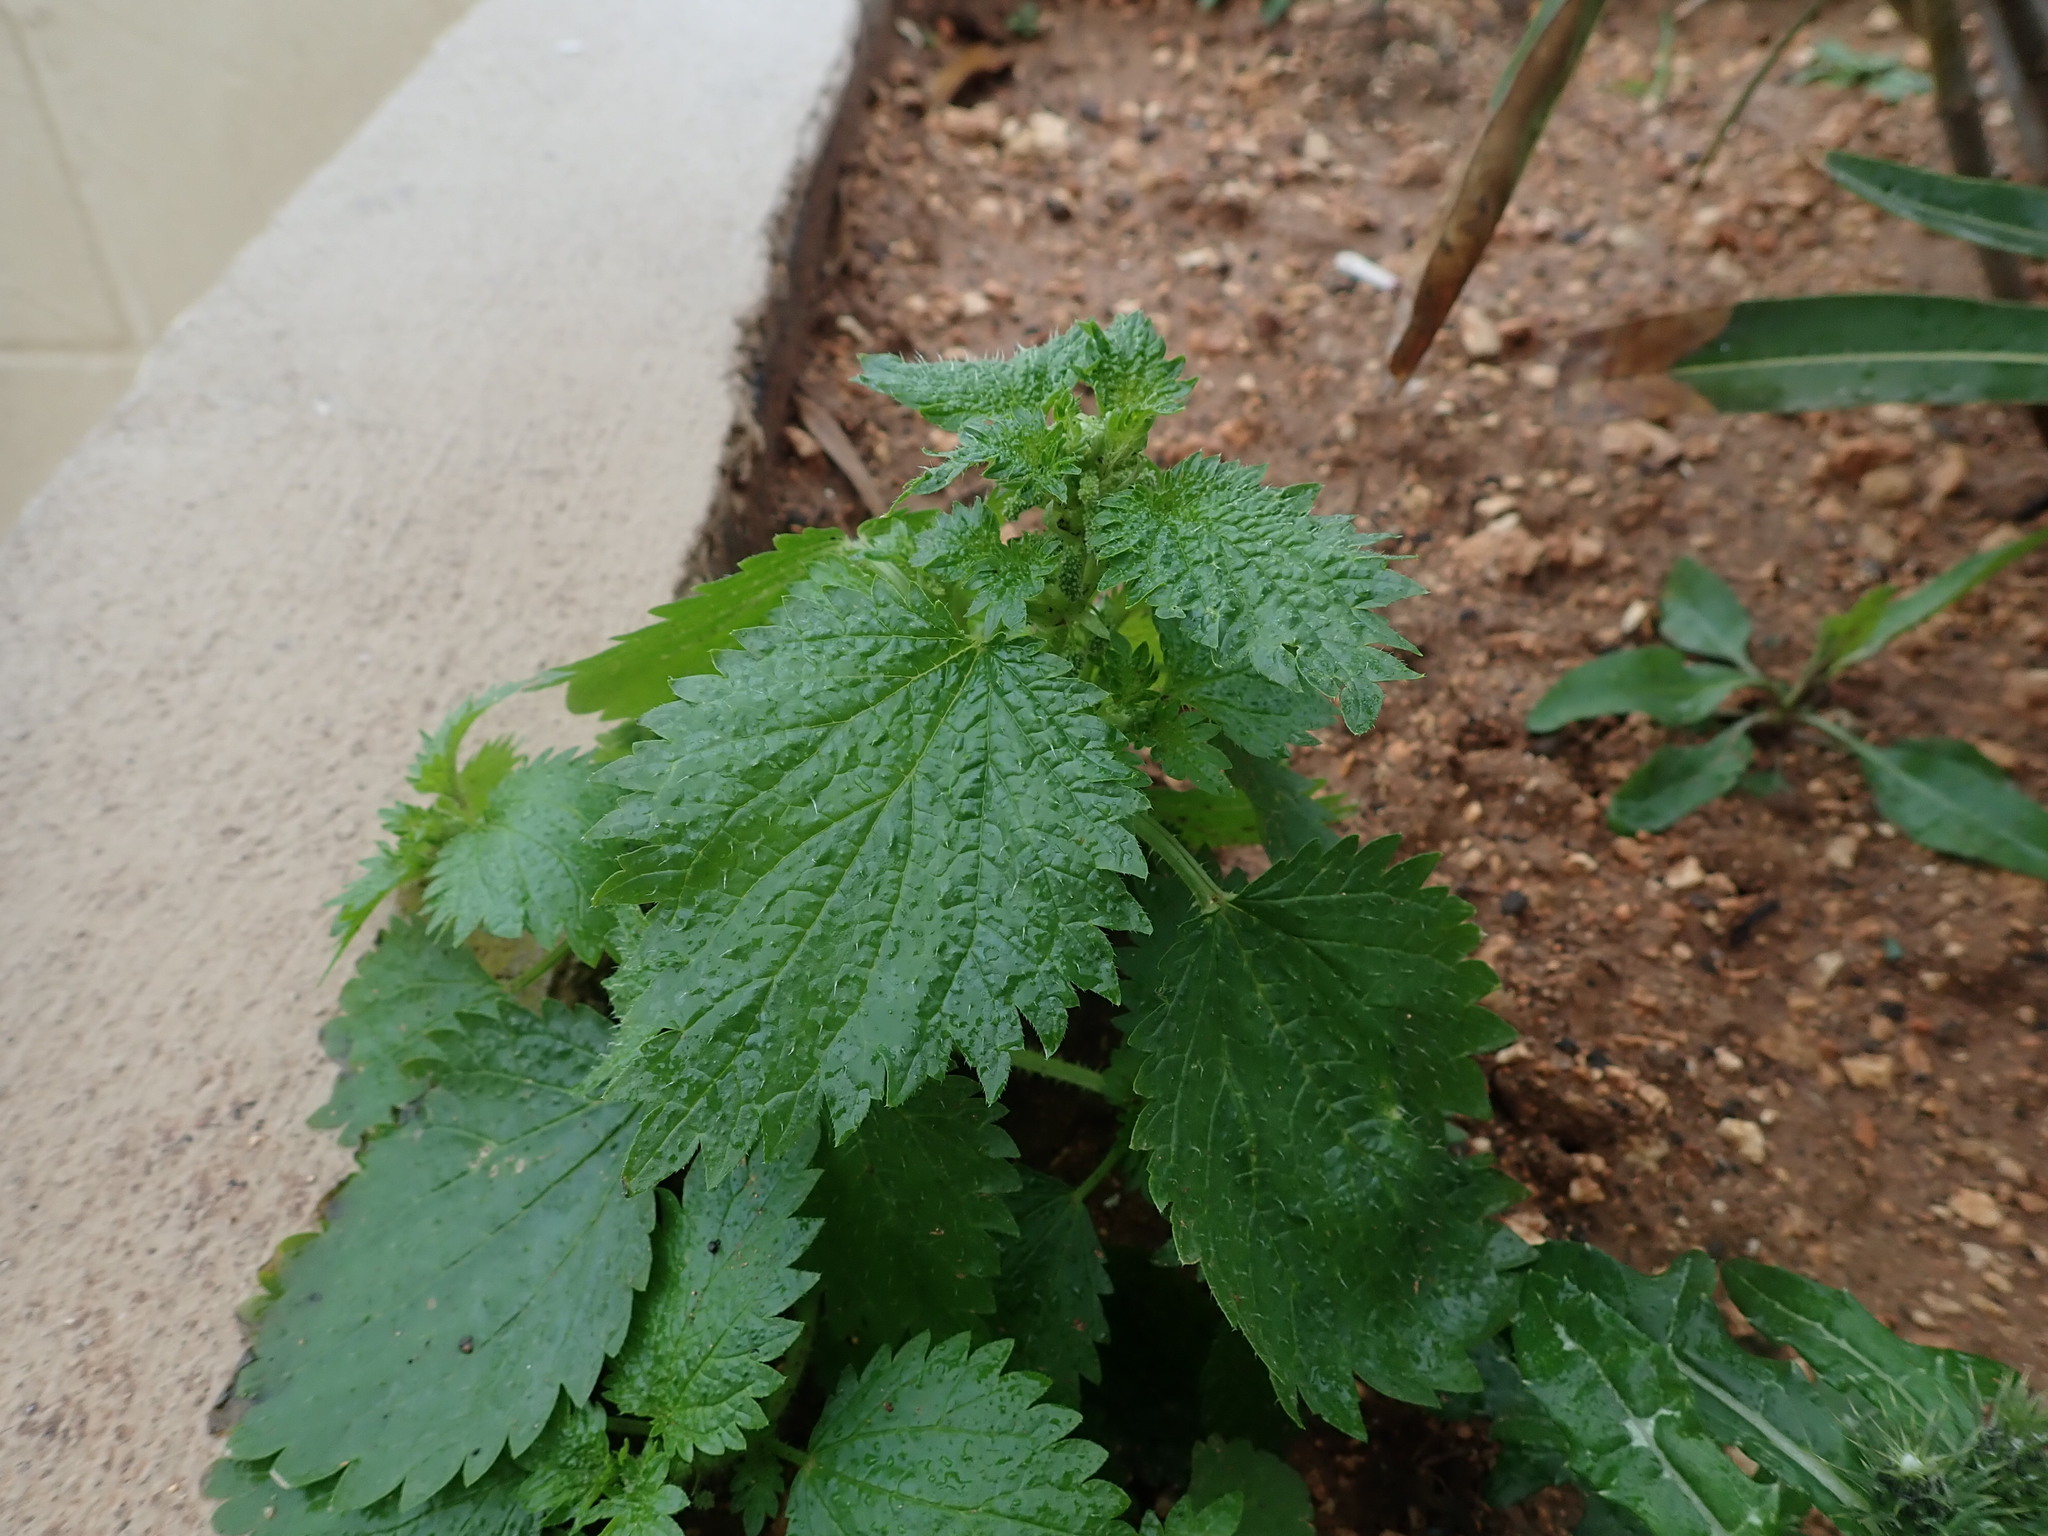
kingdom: Plantae
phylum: Tracheophyta
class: Magnoliopsida
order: Rosales
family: Urticaceae
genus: Urtica
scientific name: Urtica membranacea
